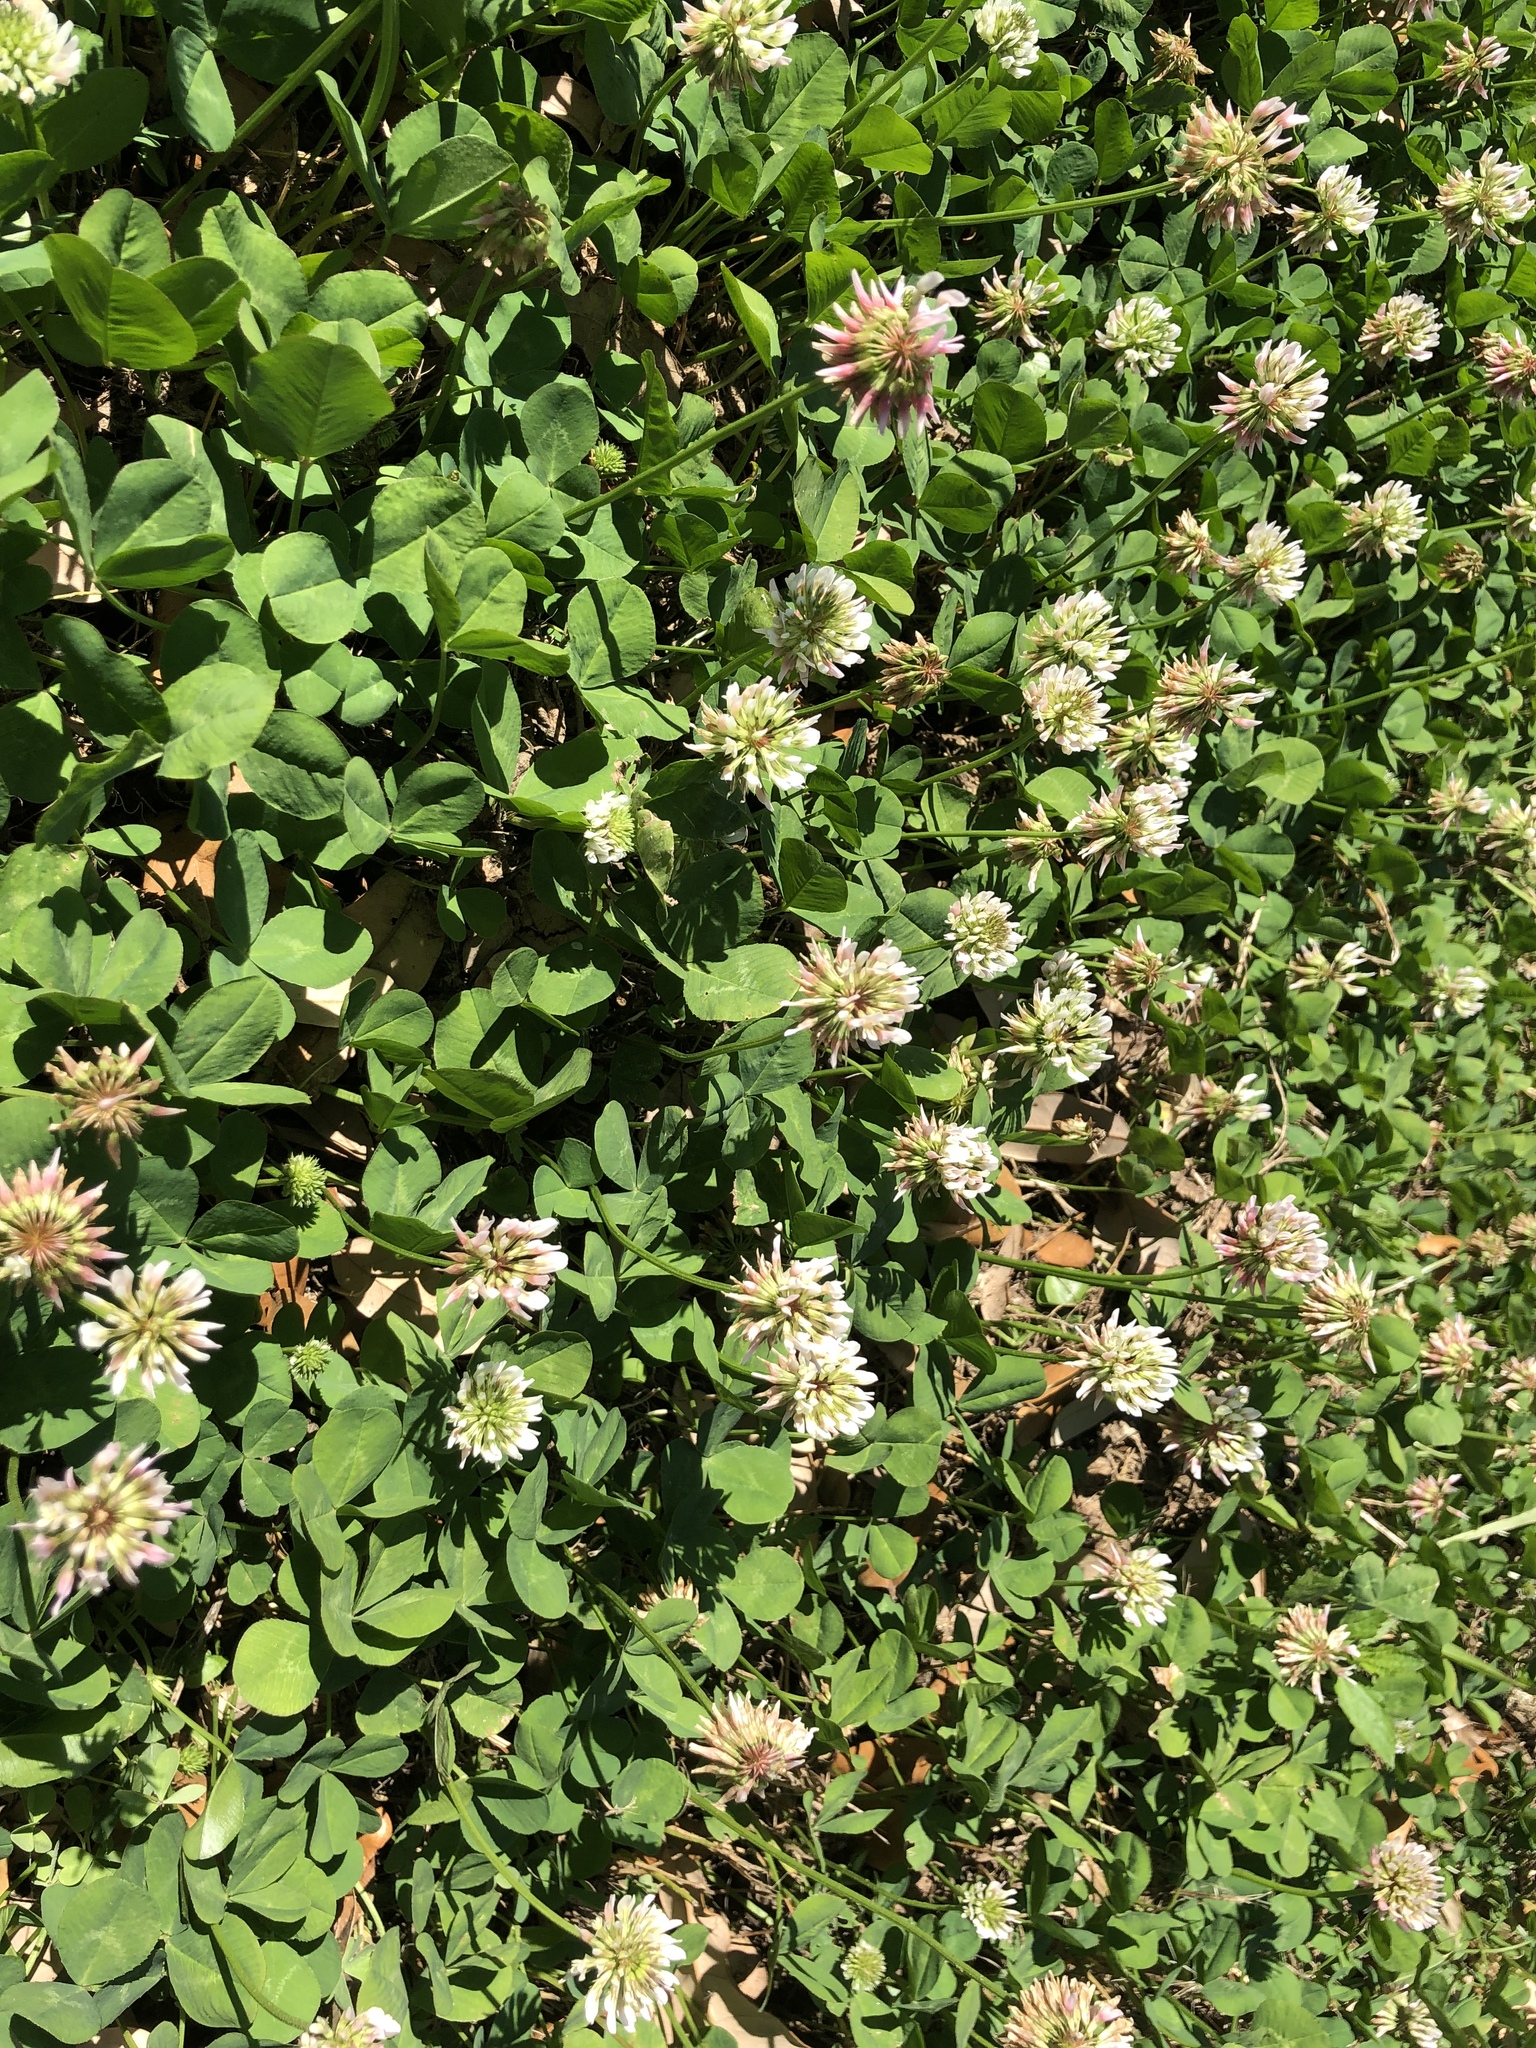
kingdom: Plantae
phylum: Tracheophyta
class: Magnoliopsida
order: Fabales
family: Fabaceae
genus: Trifolium
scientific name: Trifolium repens
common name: White clover
